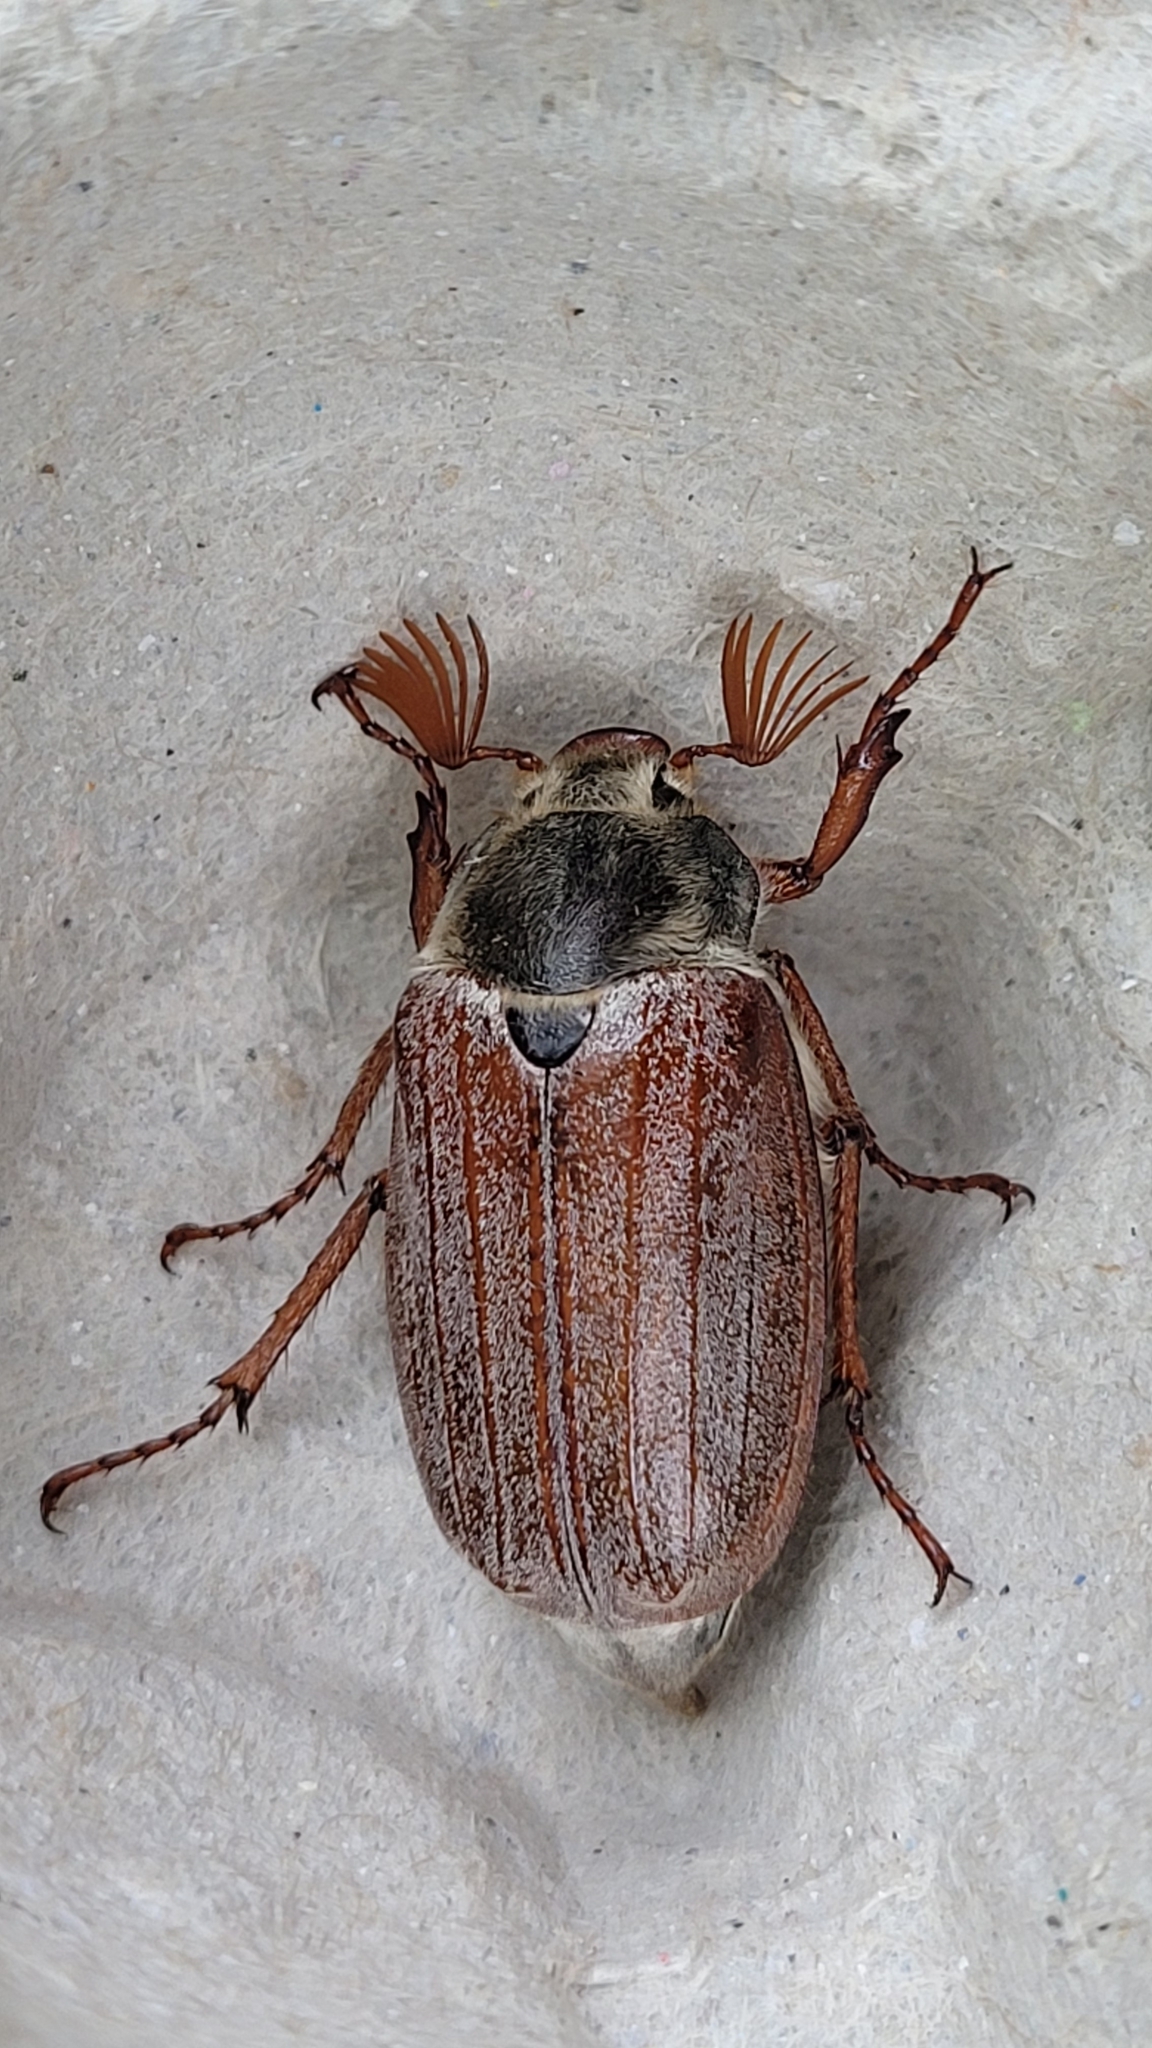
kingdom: Animalia
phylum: Arthropoda
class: Insecta
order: Coleoptera
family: Scarabaeidae
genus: Melolontha
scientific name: Melolontha melolontha
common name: Cockchafer maybeetle
